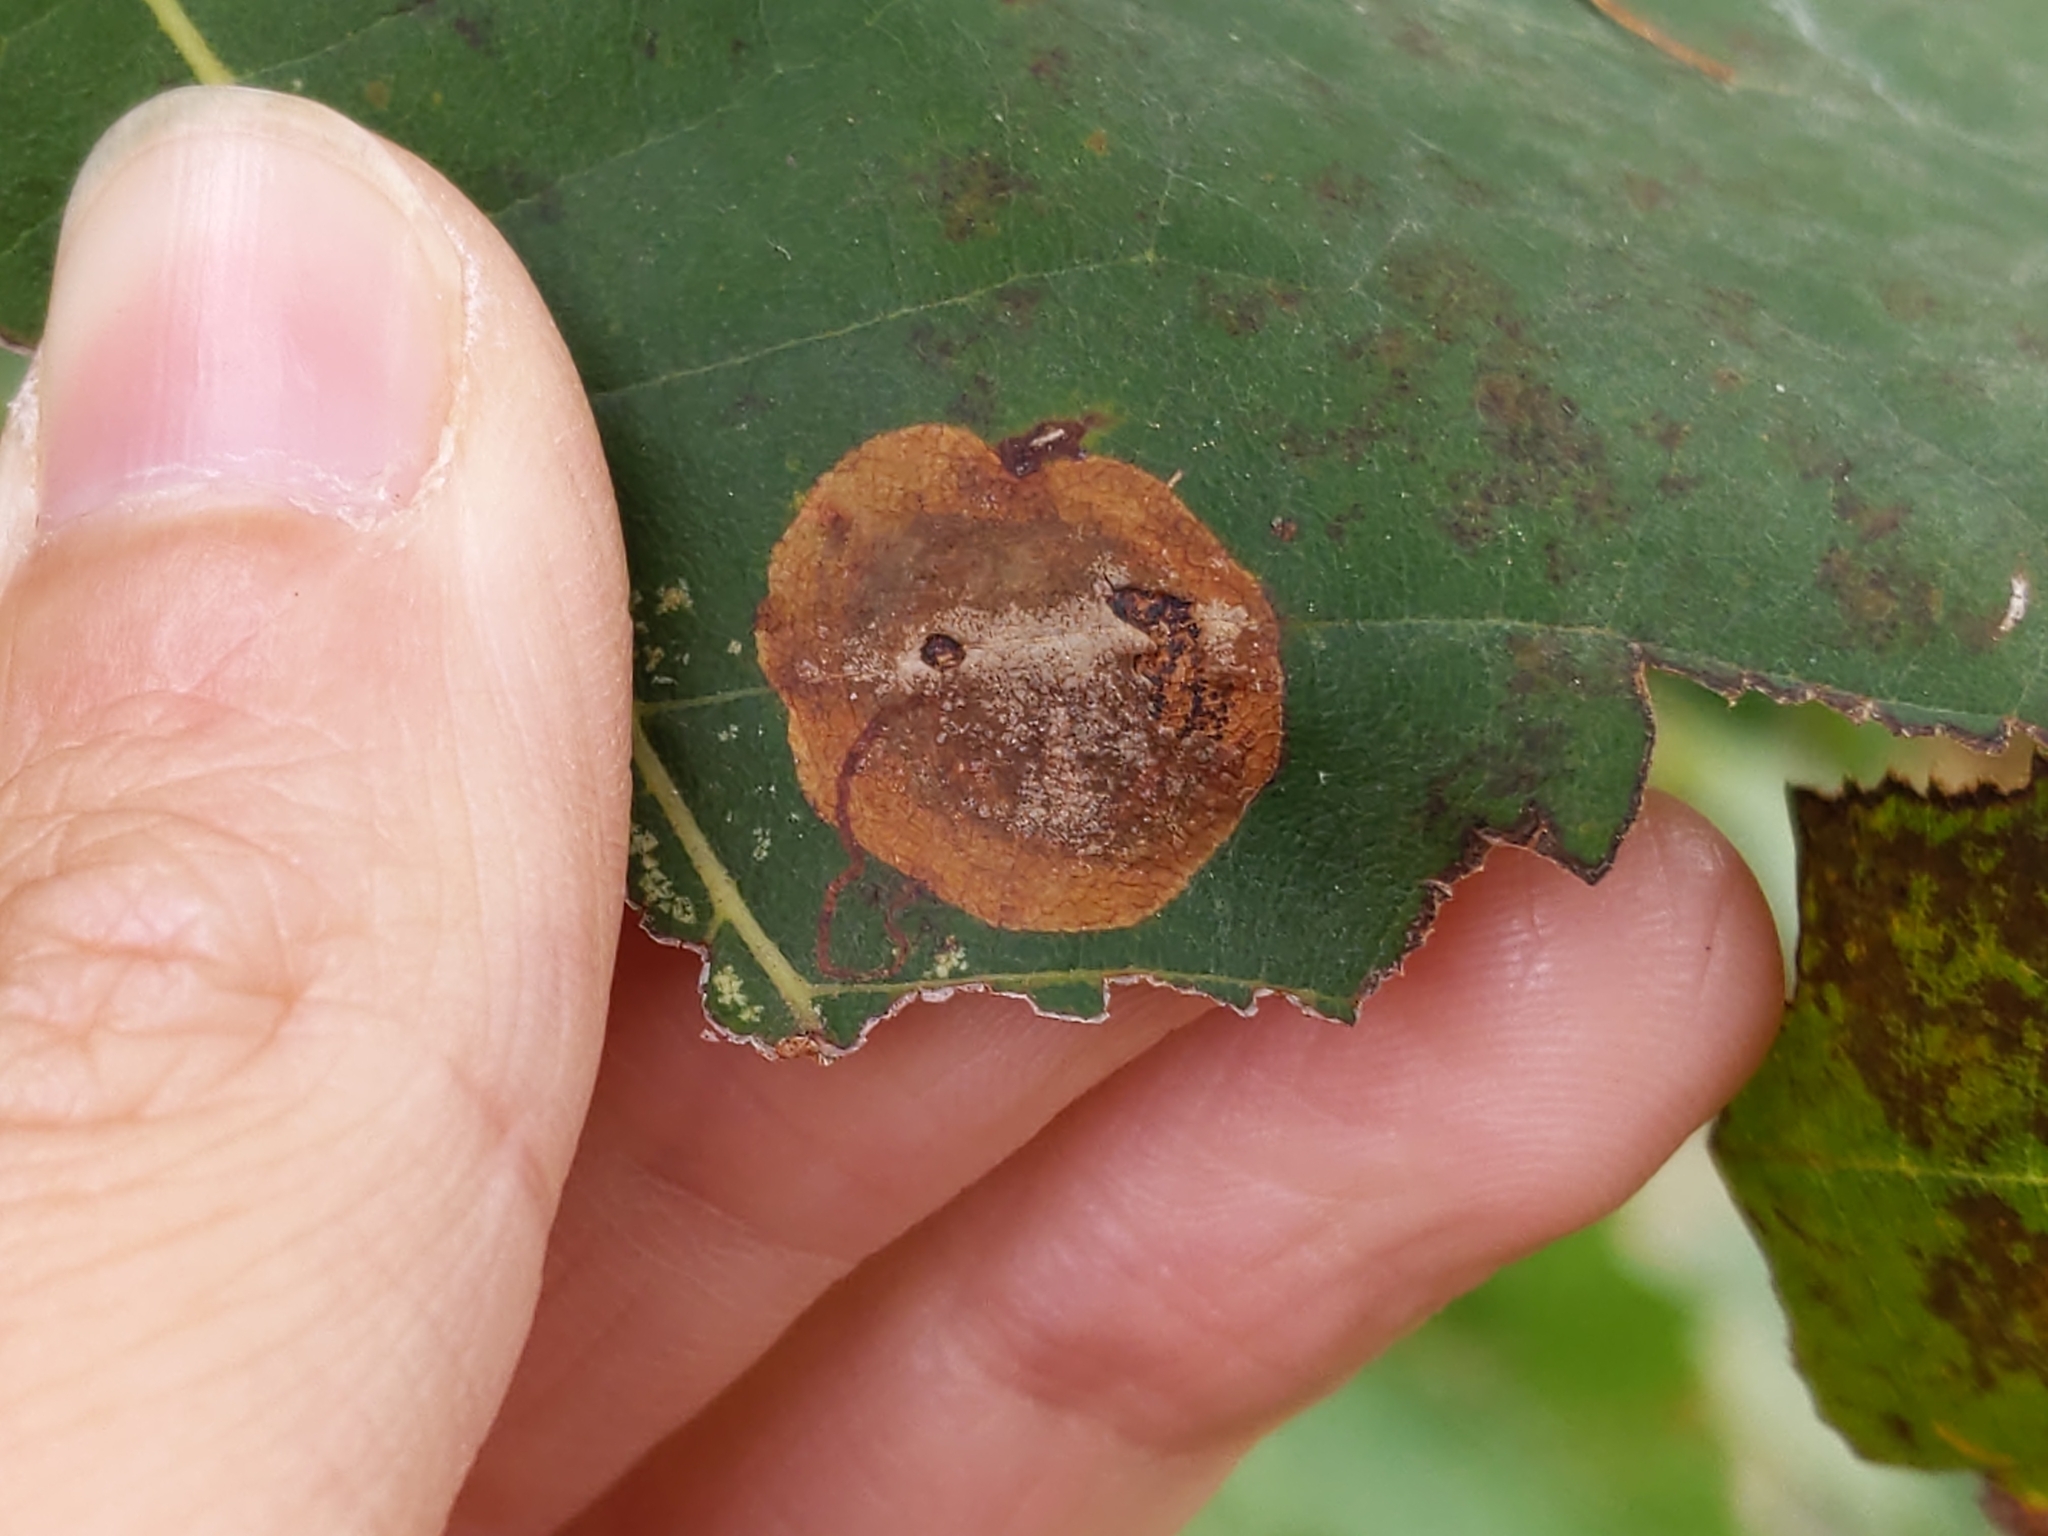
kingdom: Animalia
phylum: Arthropoda
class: Insecta
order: Lepidoptera
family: Nepticulidae
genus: Ectoedemia
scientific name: Ectoedemia platanella
